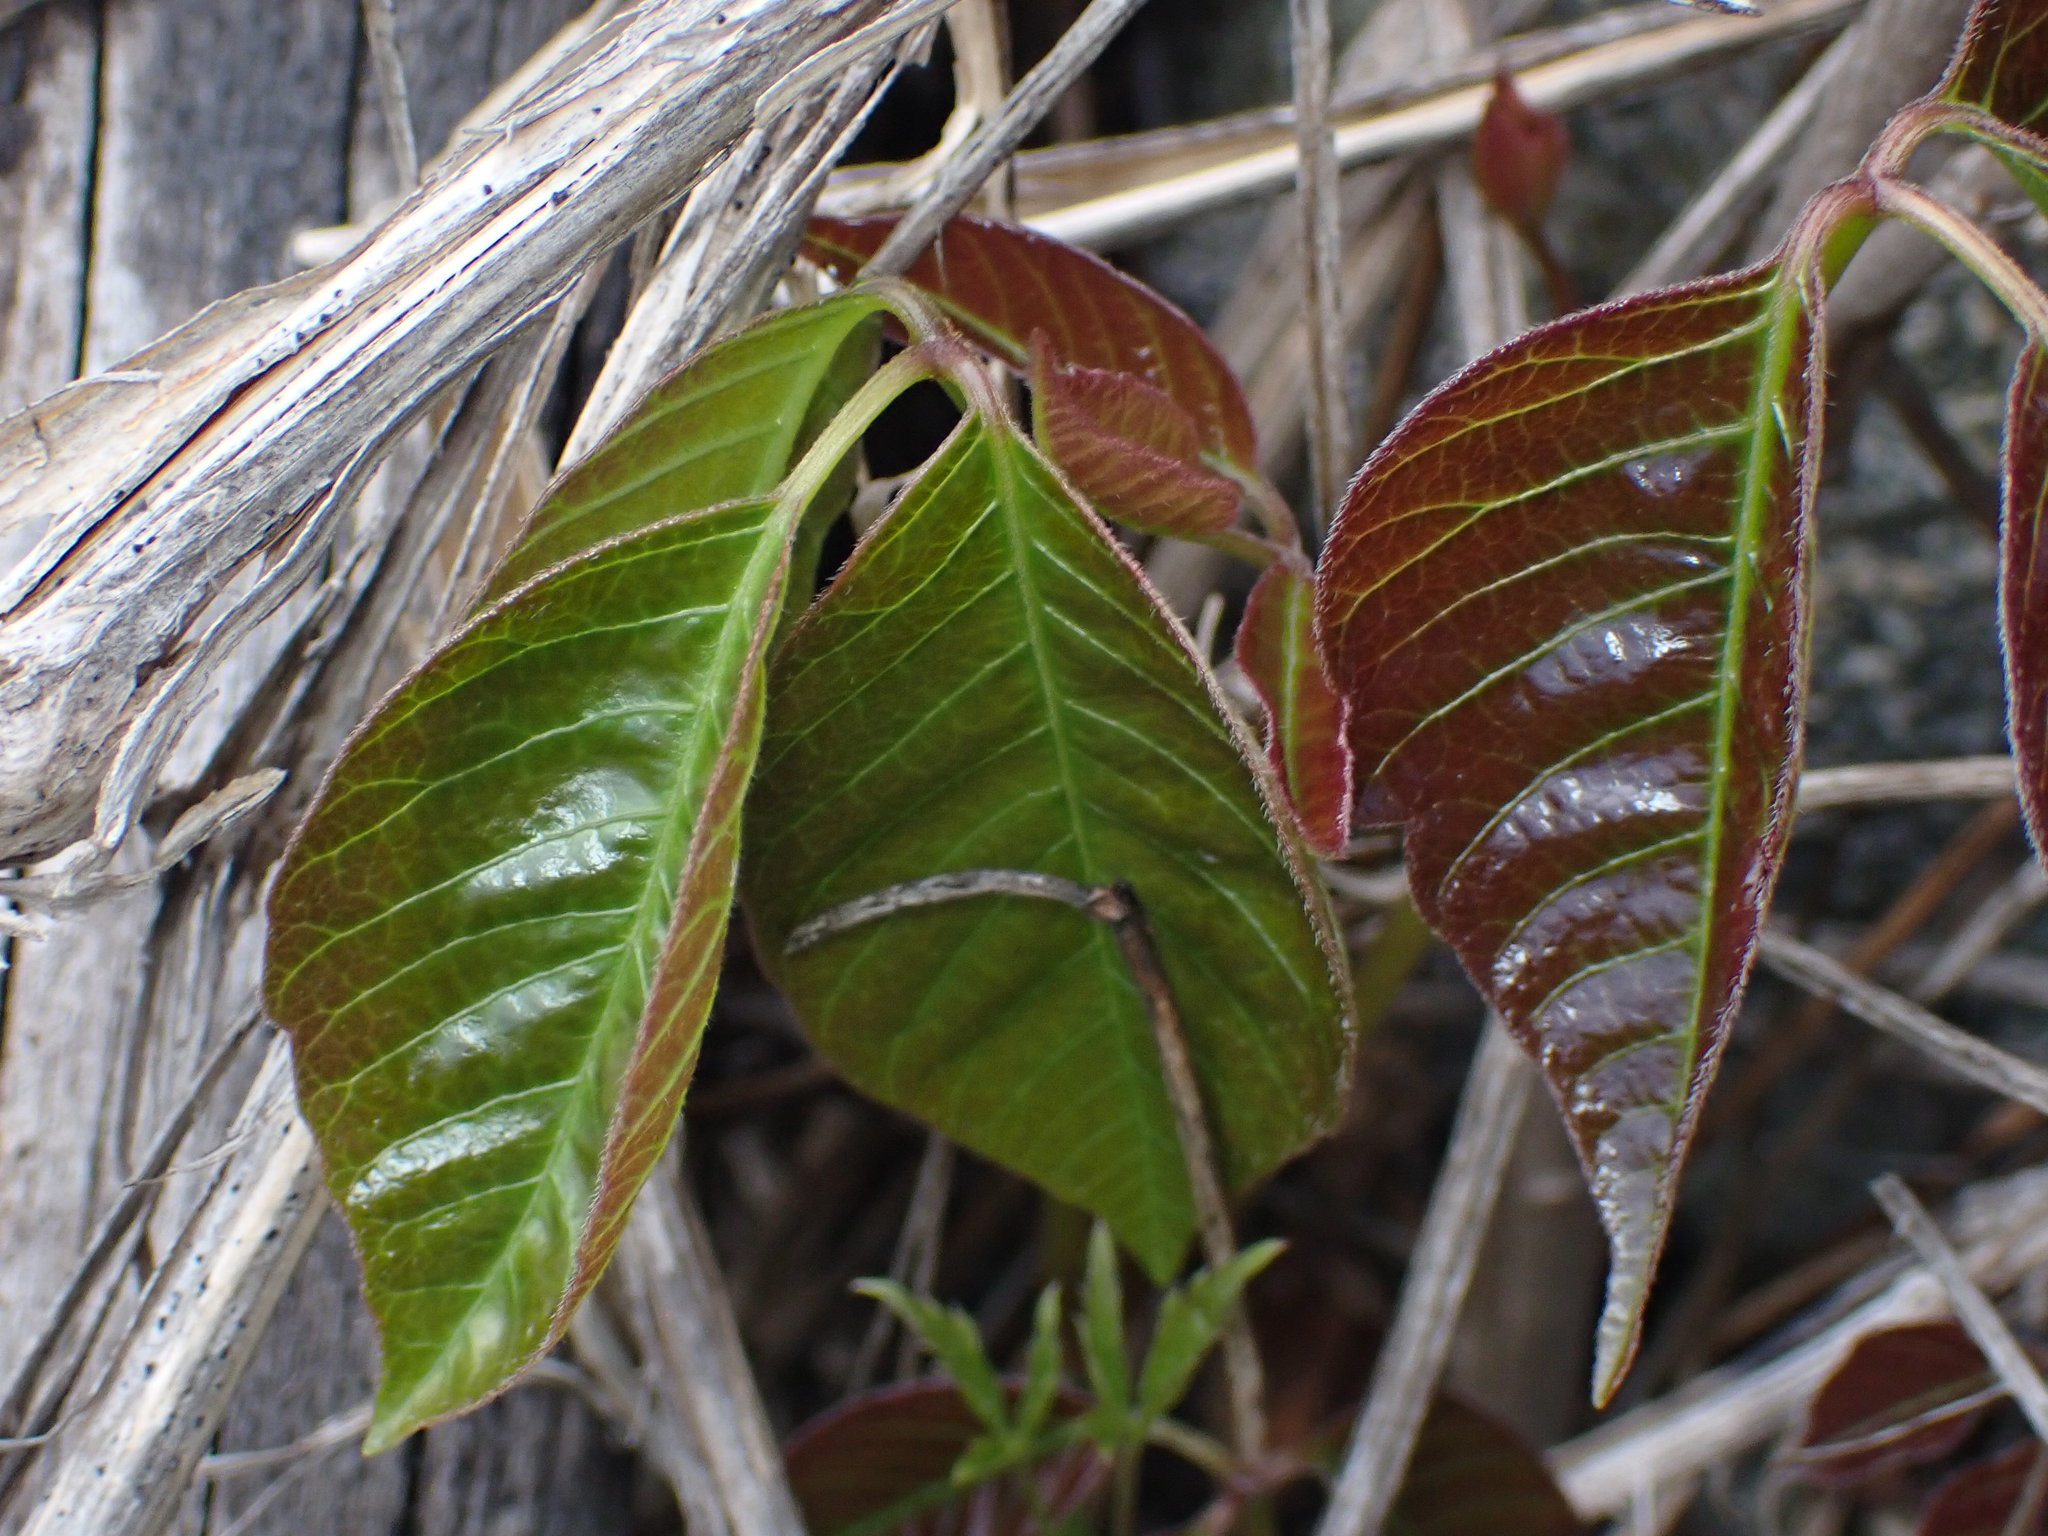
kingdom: Plantae
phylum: Tracheophyta
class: Magnoliopsida
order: Sapindales
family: Anacardiaceae
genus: Toxicodendron
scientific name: Toxicodendron rydbergii
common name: Rydberg's poison-ivy
